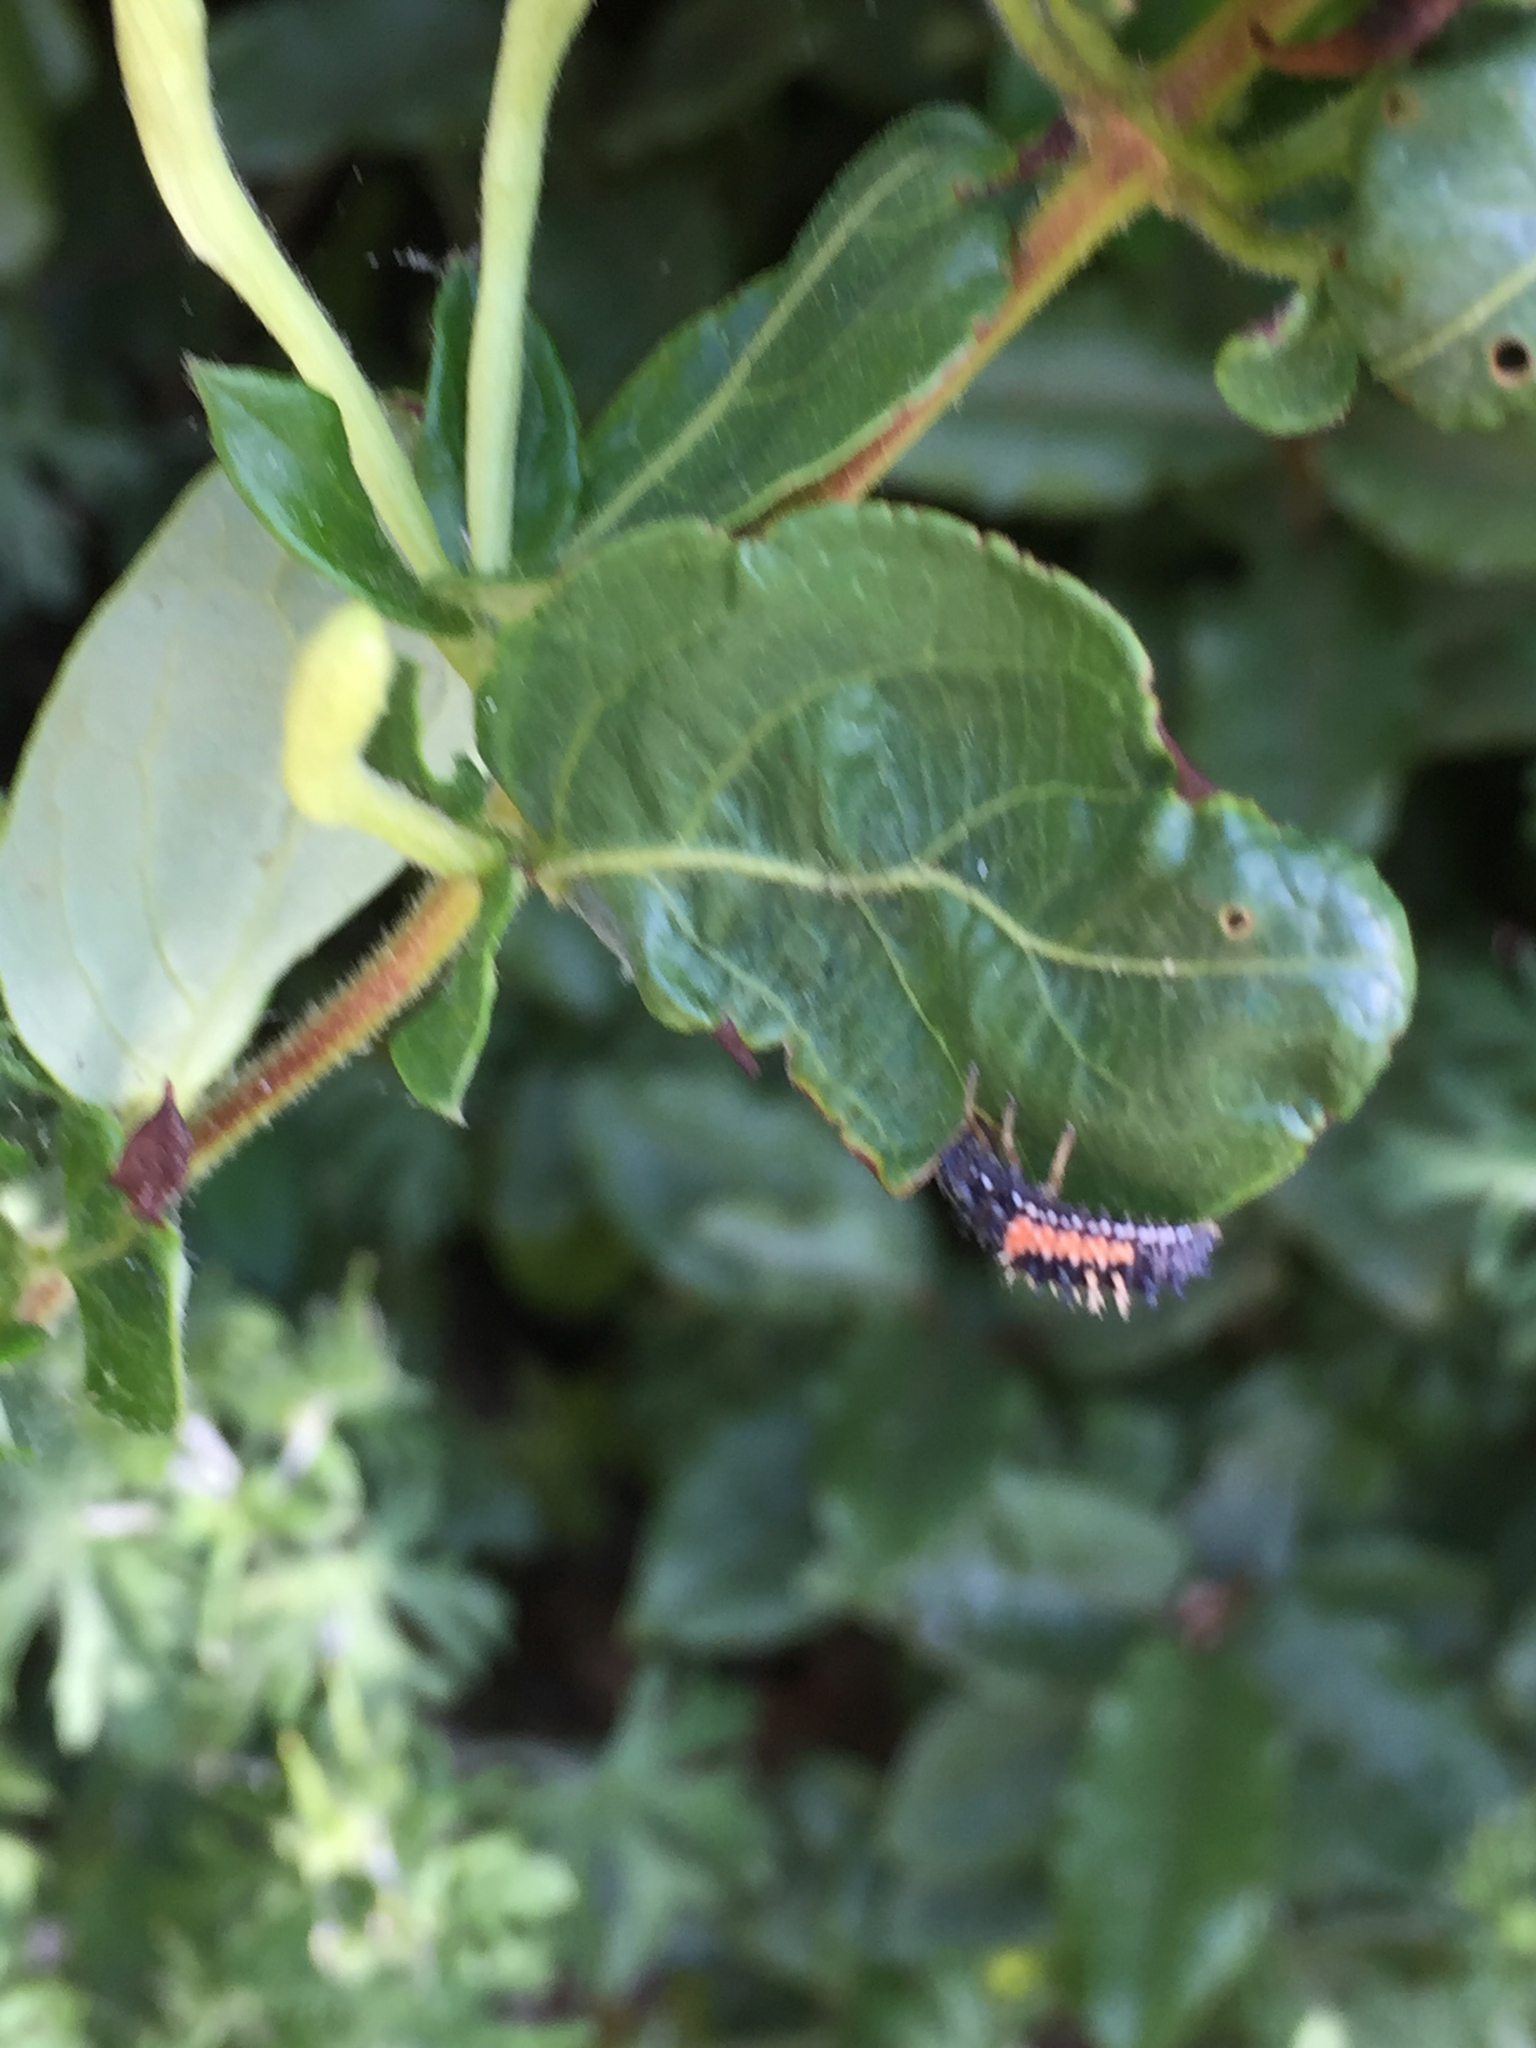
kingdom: Animalia
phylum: Arthropoda
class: Insecta
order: Coleoptera
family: Coccinellidae
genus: Harmonia
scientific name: Harmonia axyridis
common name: Harlequin ladybird
